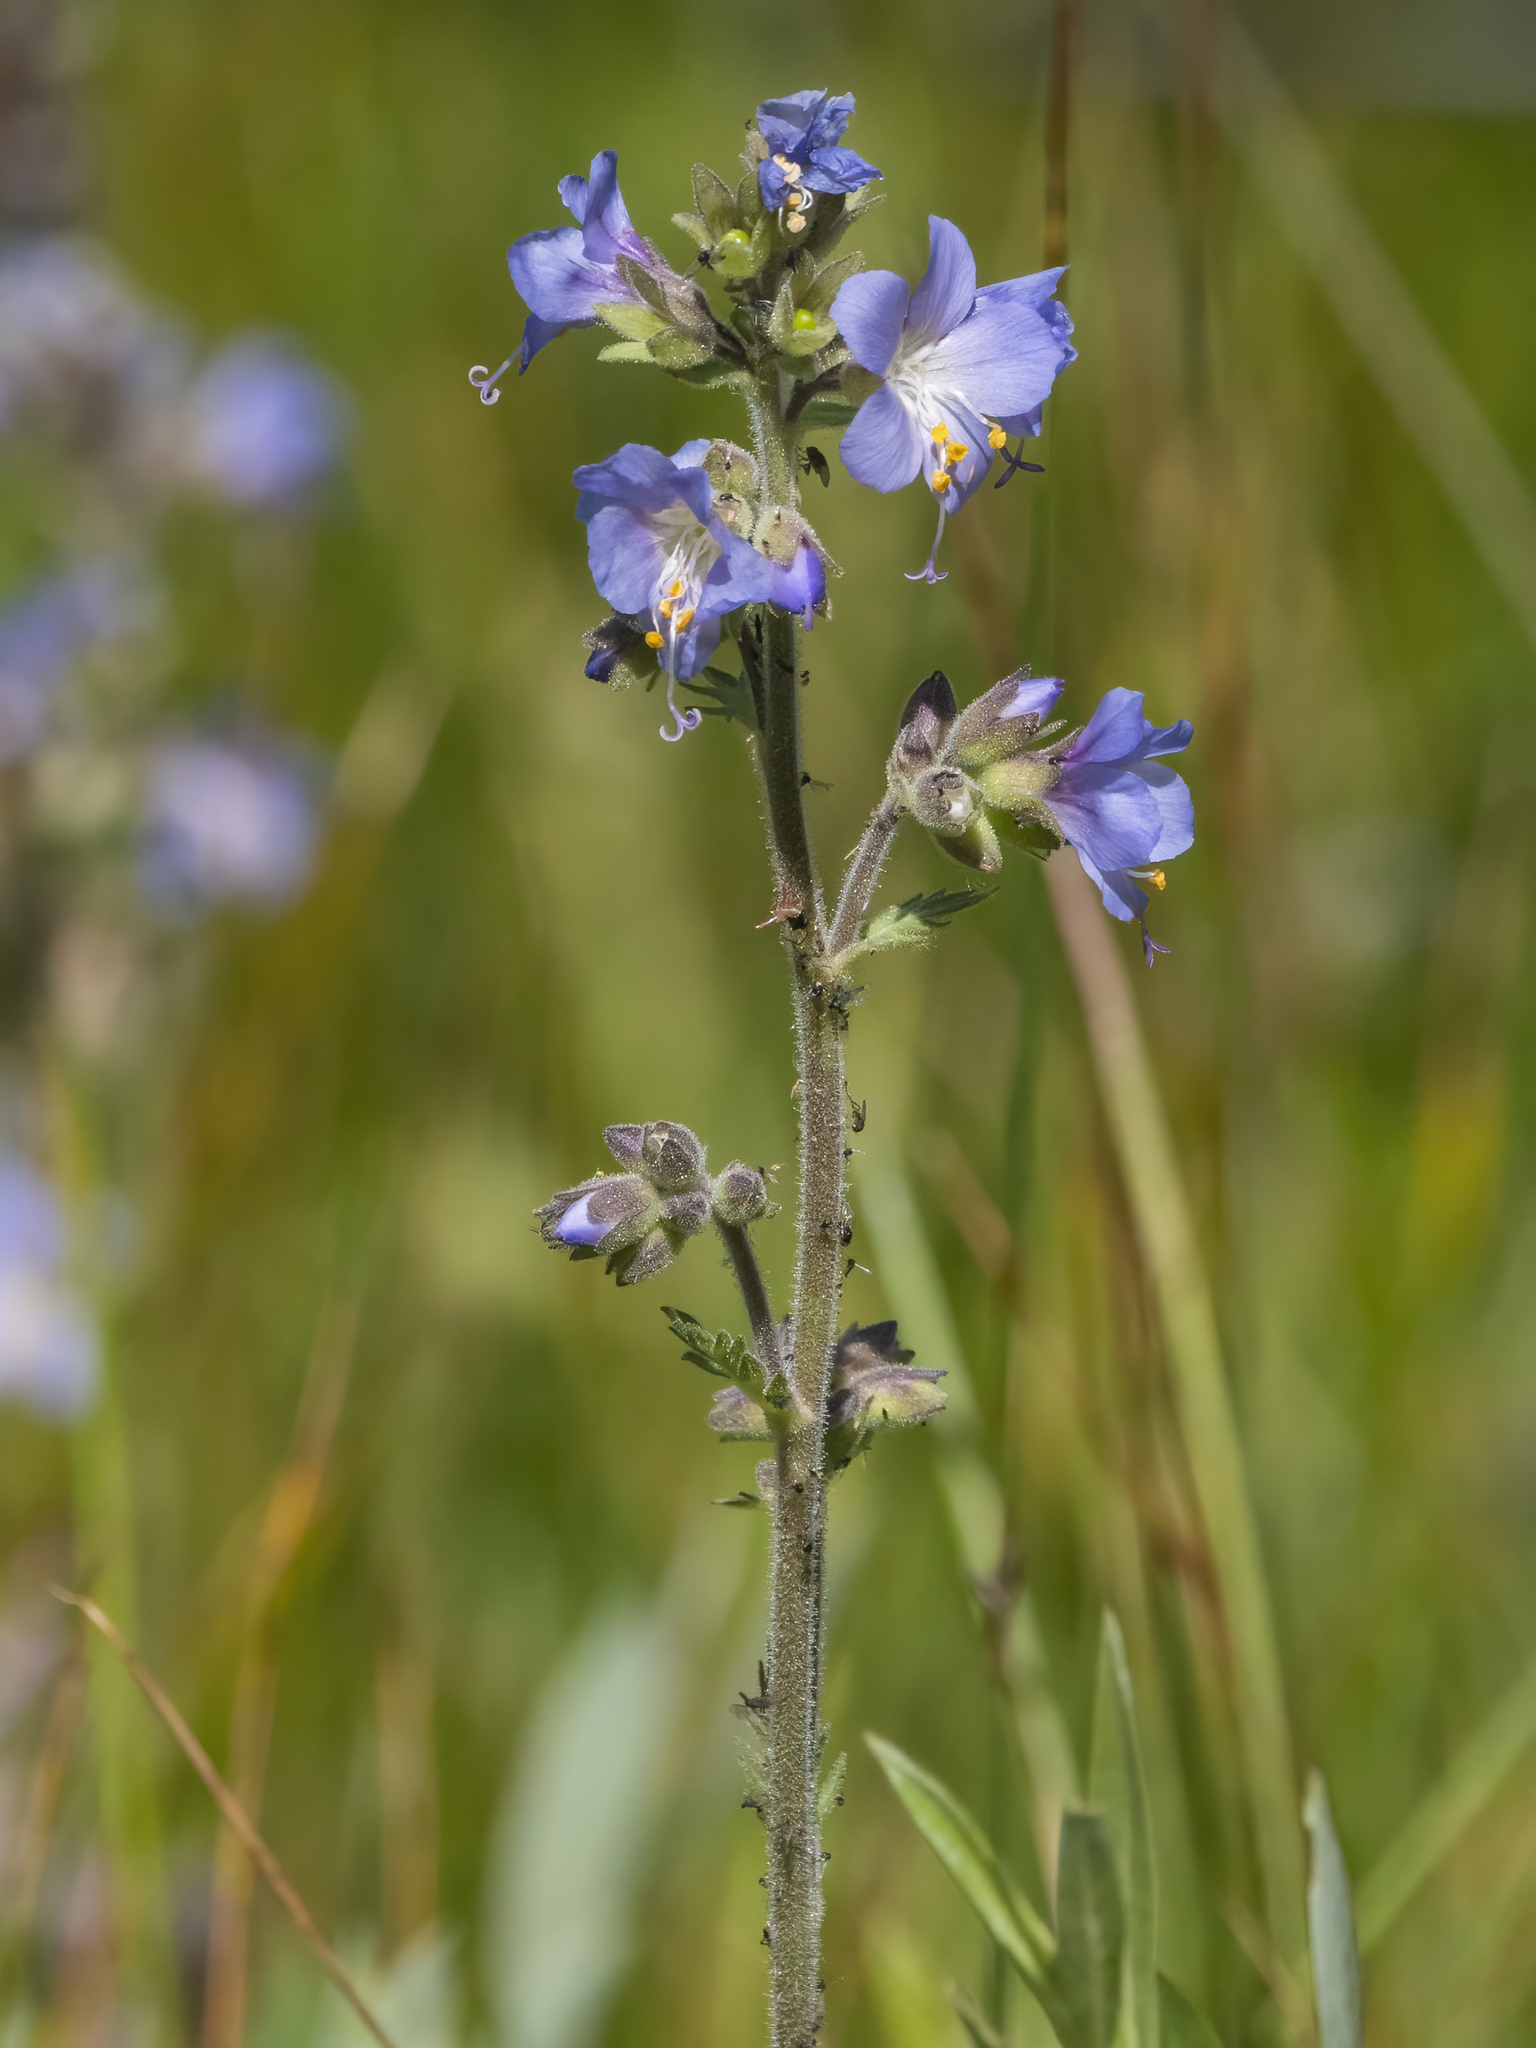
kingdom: Plantae
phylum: Tracheophyta
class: Magnoliopsida
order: Ericales
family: Polemoniaceae
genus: Polemonium
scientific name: Polemonium occidentale
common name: Western jacob's-ladder
